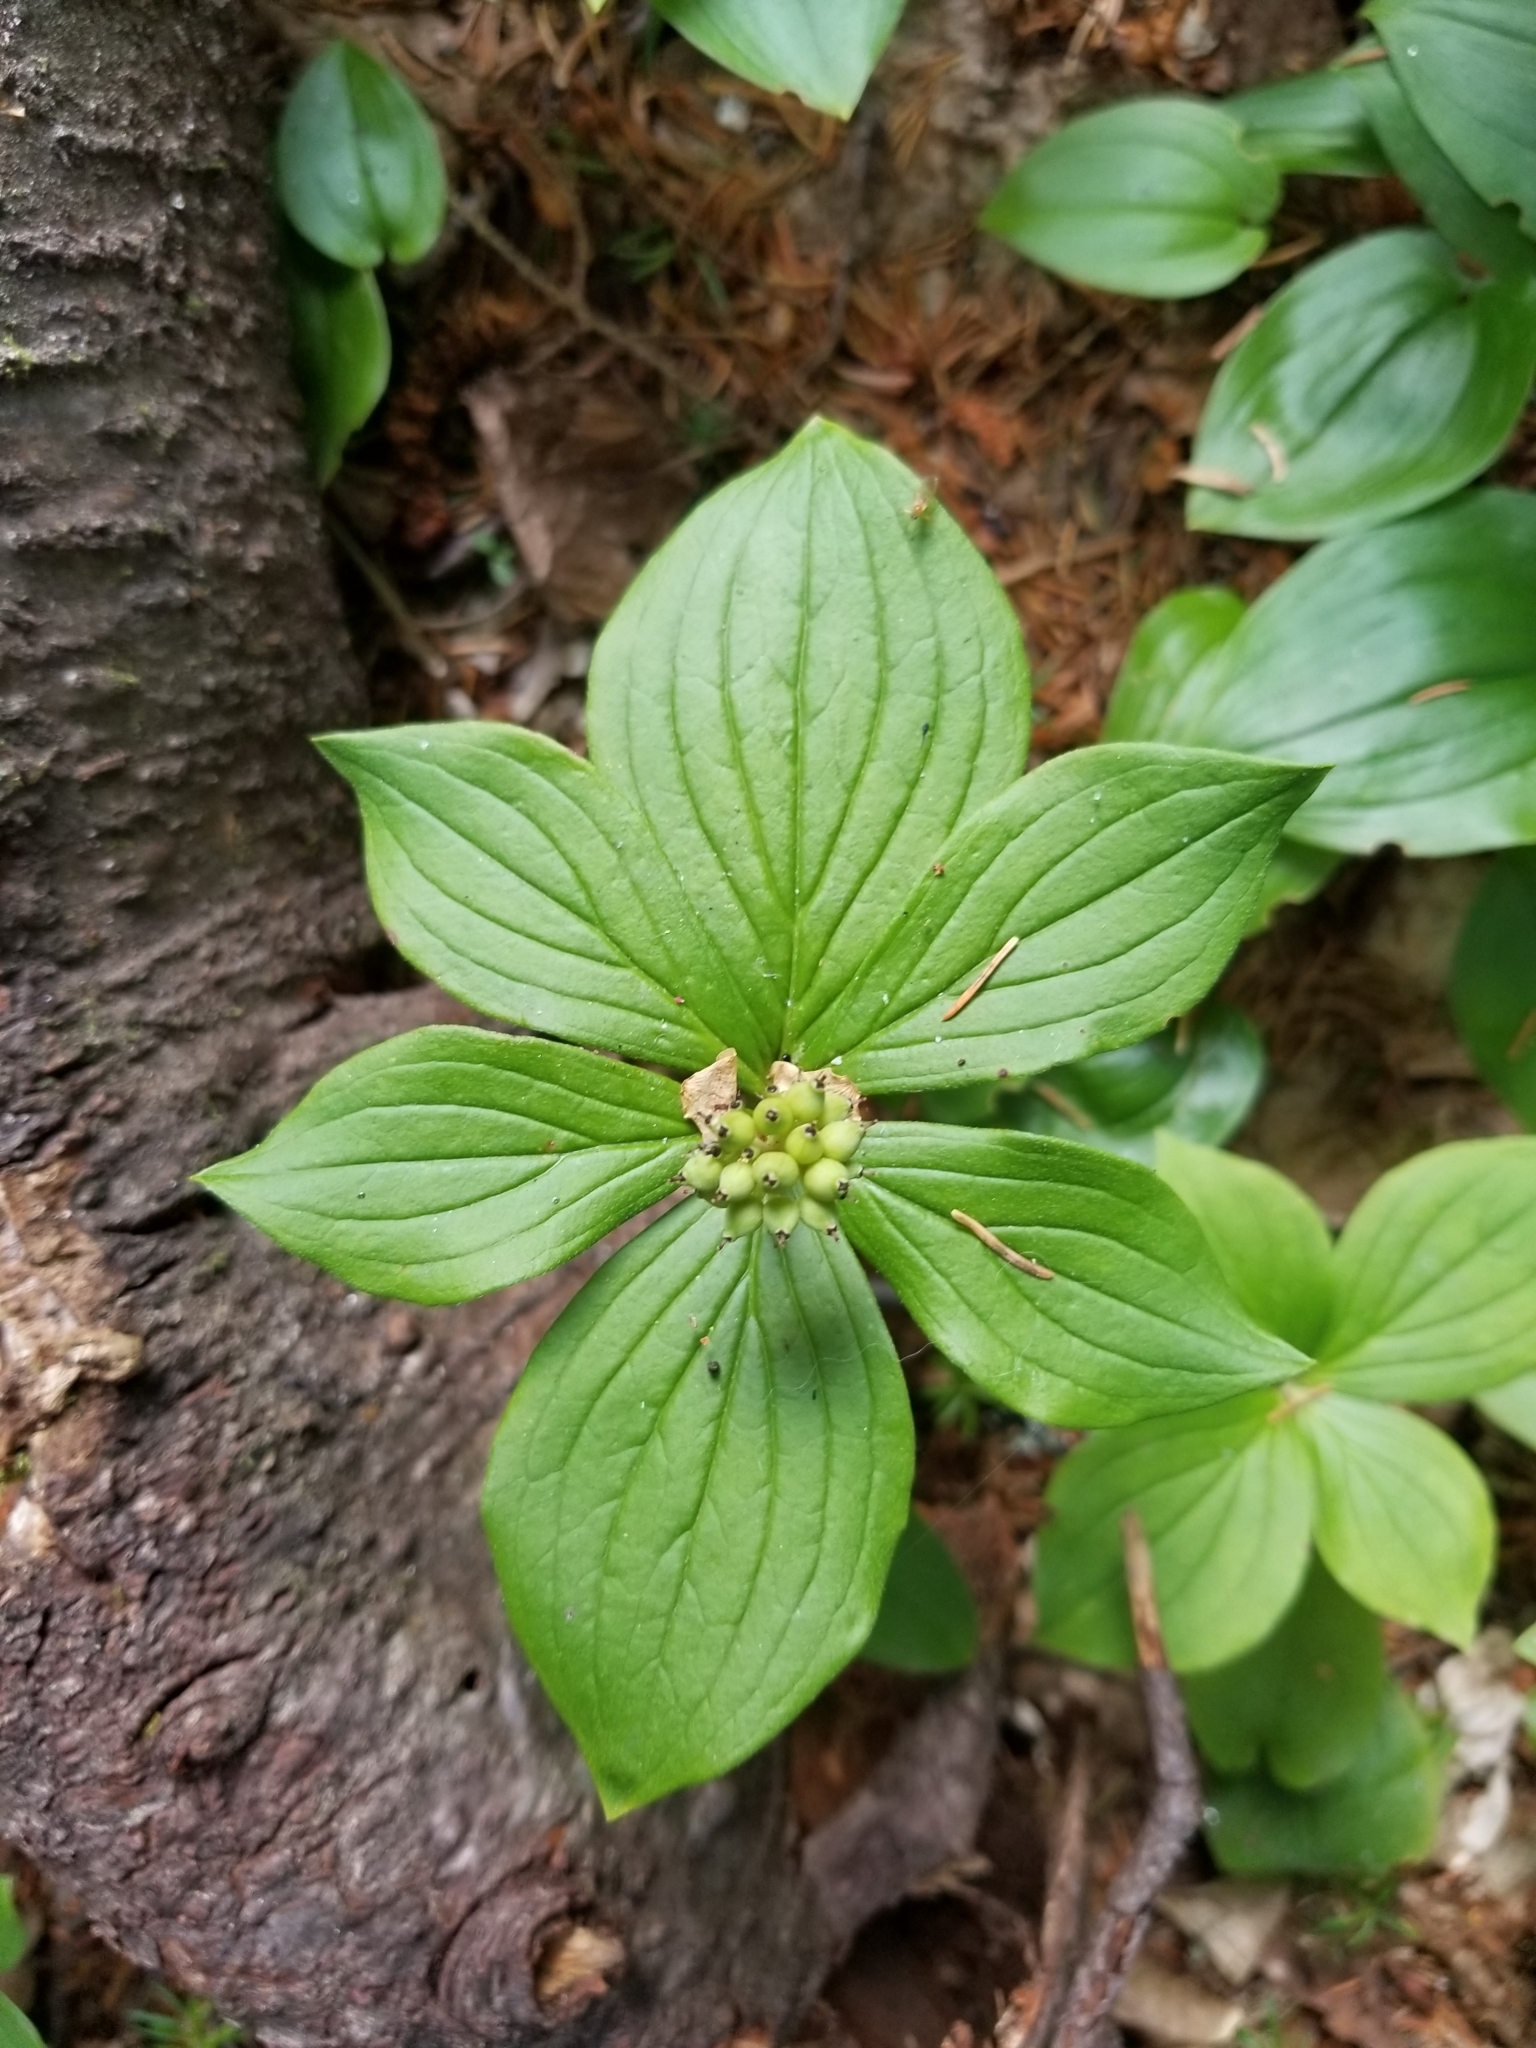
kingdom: Plantae
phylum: Tracheophyta
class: Magnoliopsida
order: Cornales
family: Cornaceae
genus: Cornus
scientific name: Cornus canadensis
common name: Creeping dogwood
